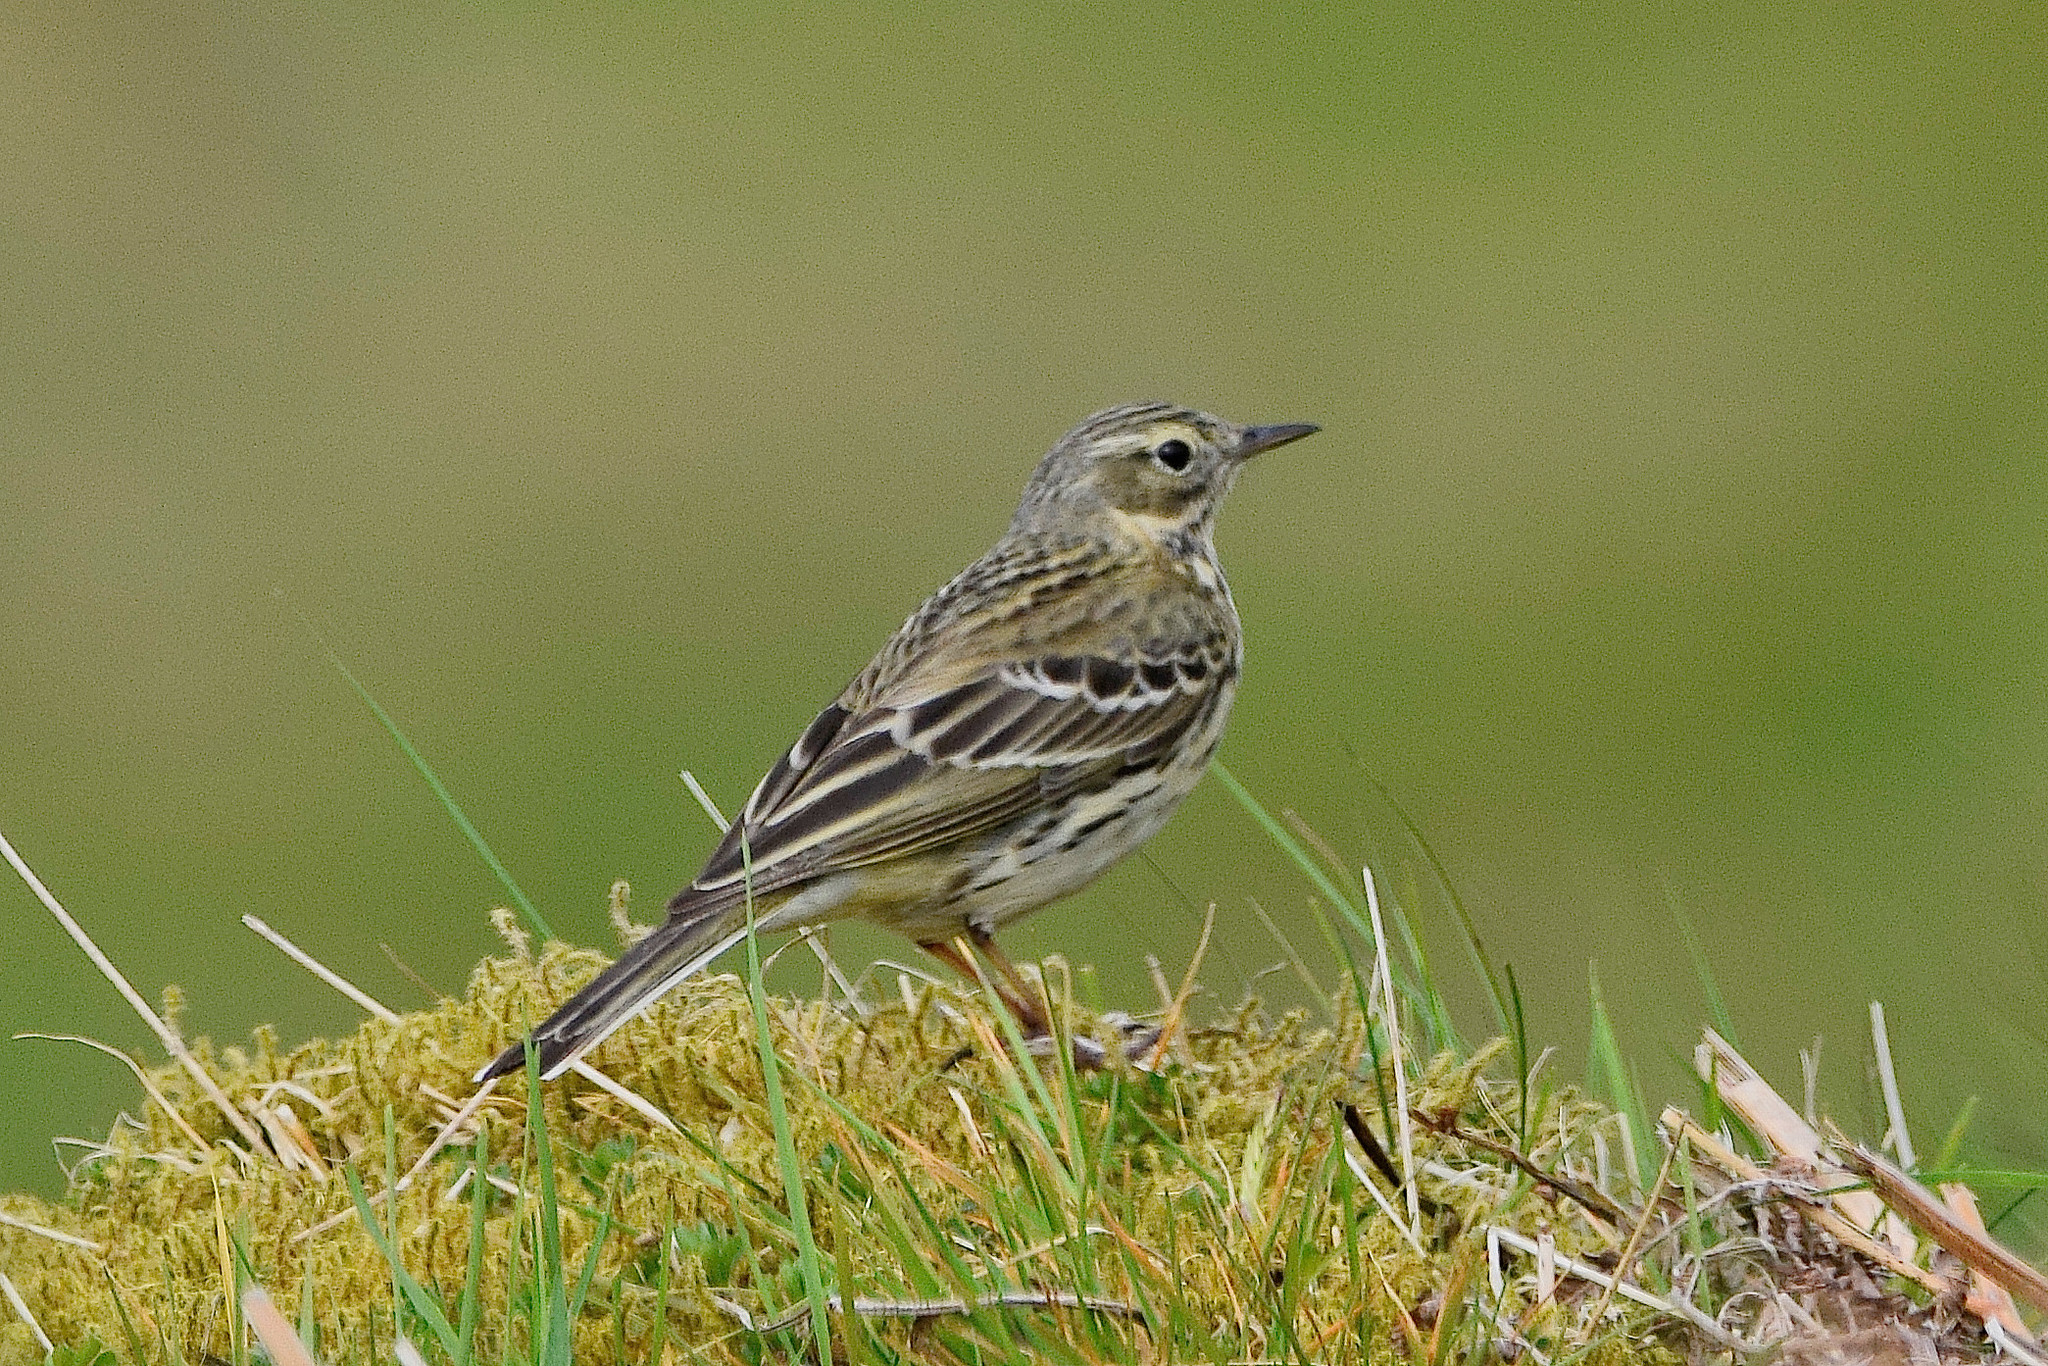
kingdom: Animalia
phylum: Chordata
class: Aves
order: Passeriformes
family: Motacillidae
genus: Anthus
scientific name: Anthus pratensis
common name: Meadow pipit
